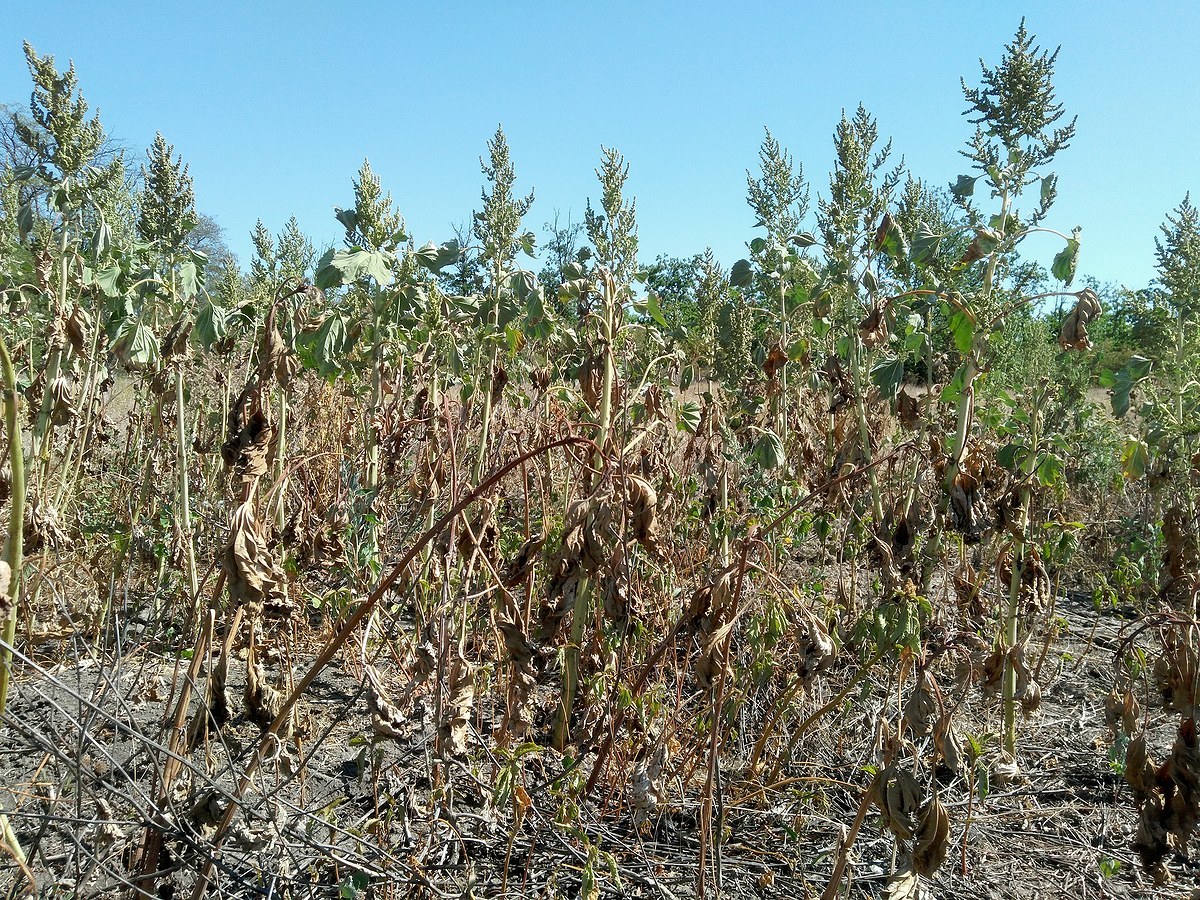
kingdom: Plantae
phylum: Tracheophyta
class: Magnoliopsida
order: Asterales
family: Asteraceae
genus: Cyclachaena
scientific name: Cyclachaena xanthiifolia
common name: Giant sumpweed
